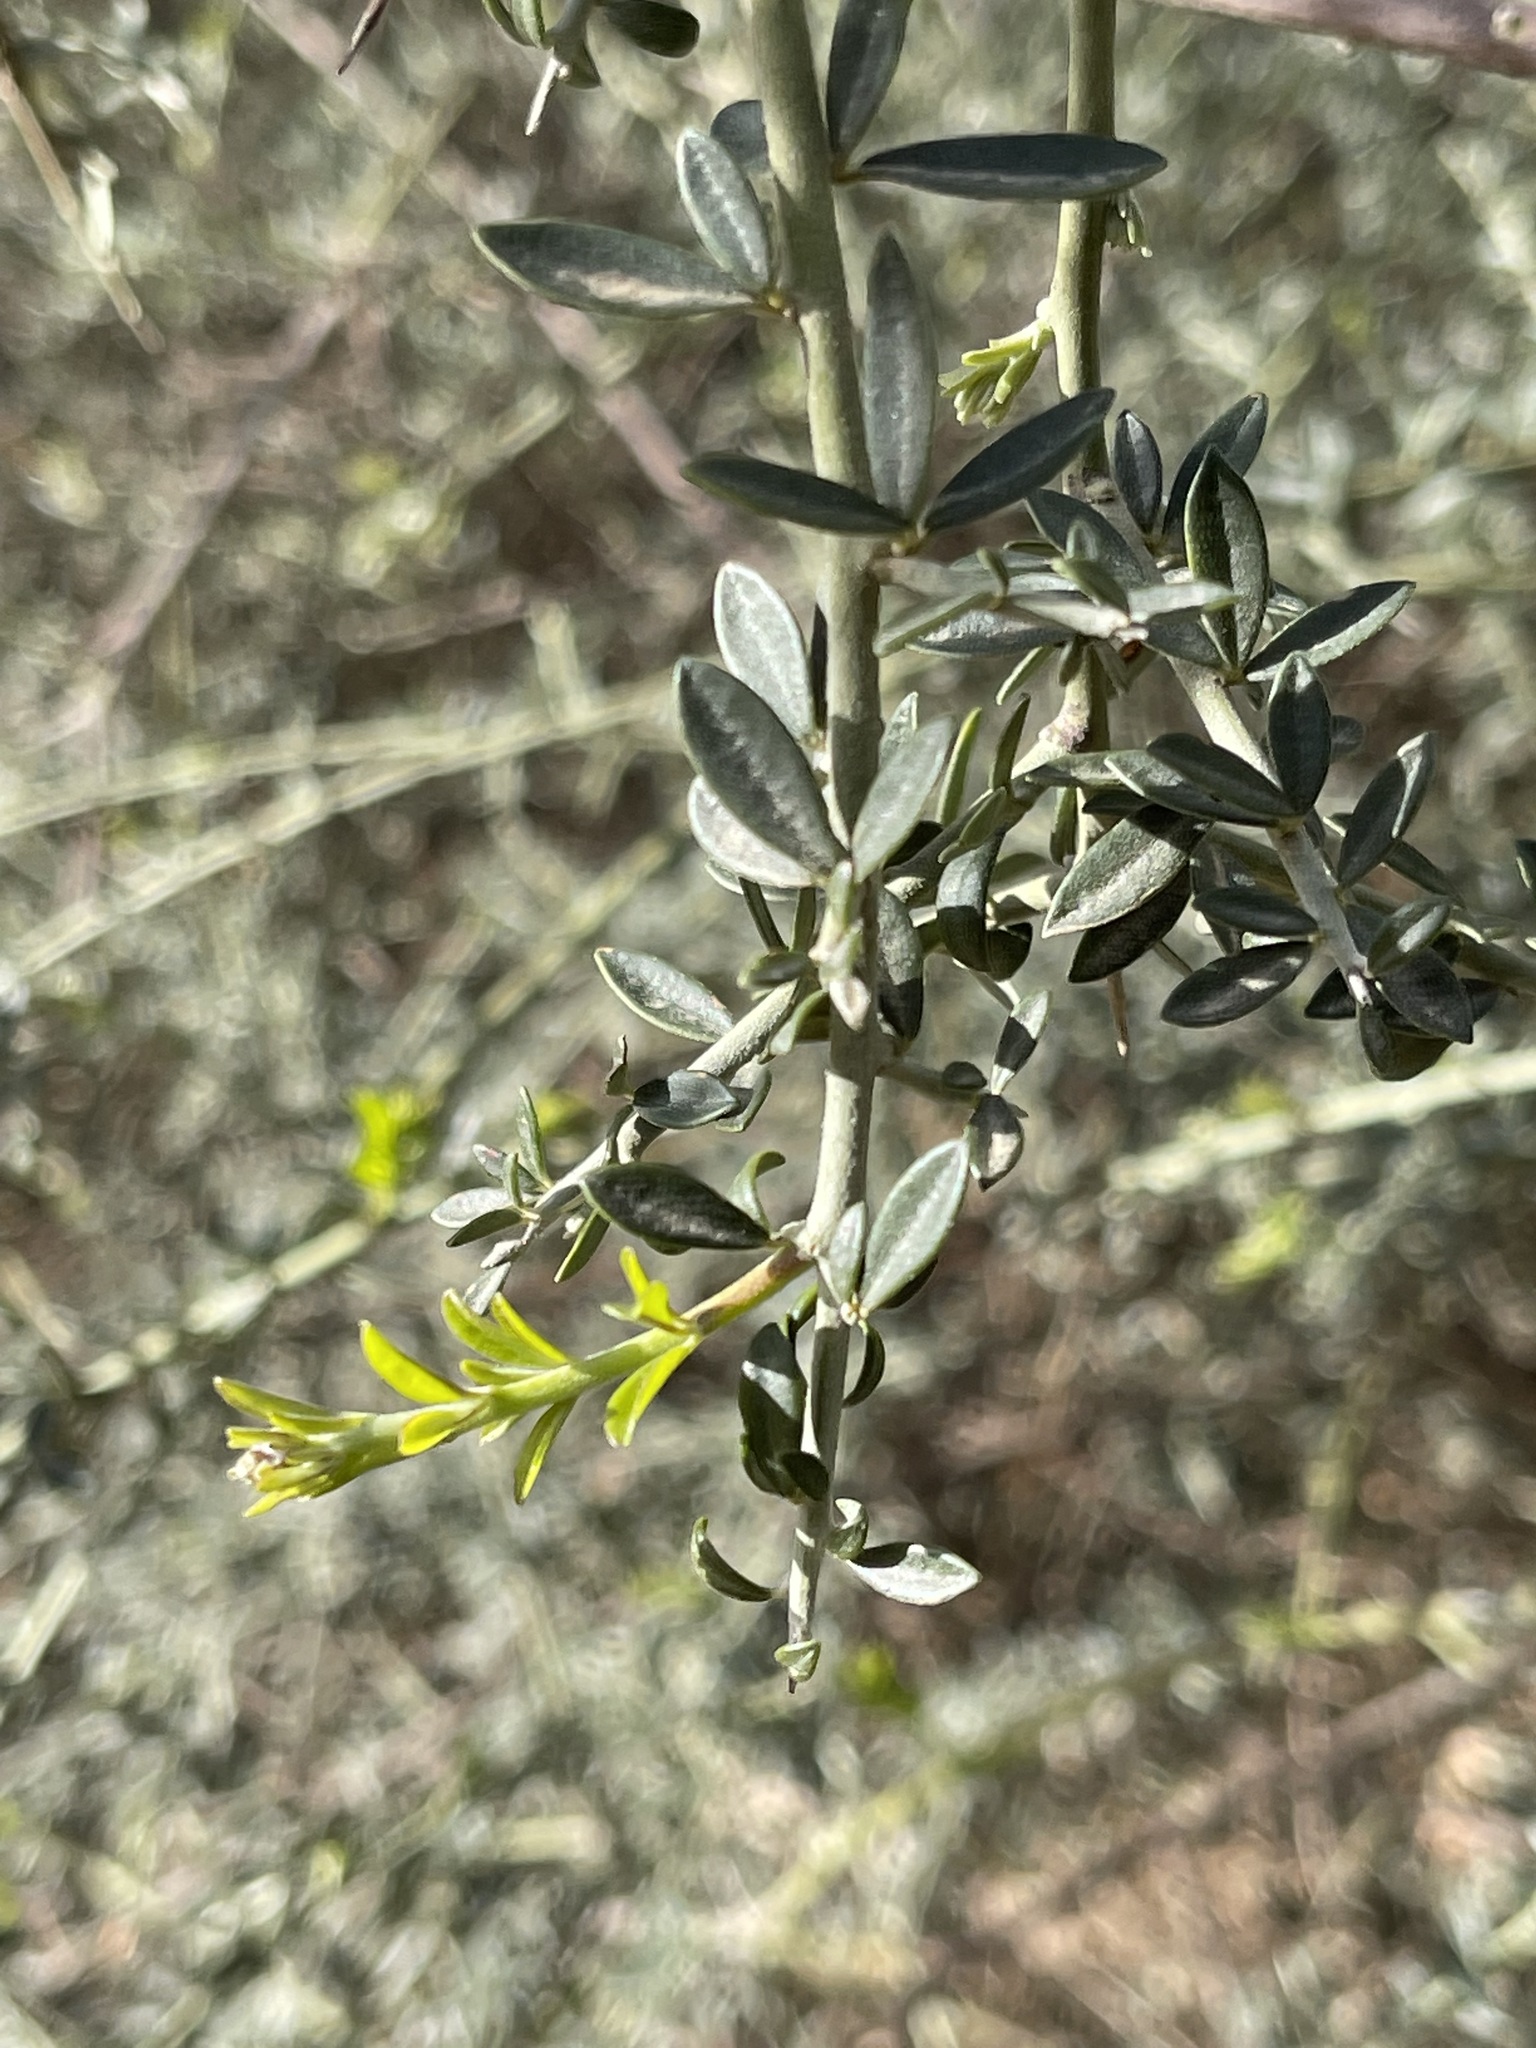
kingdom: Plantae
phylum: Tracheophyta
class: Magnoliopsida
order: Fabales
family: Fabaceae
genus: Pickeringia
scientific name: Pickeringia montana
